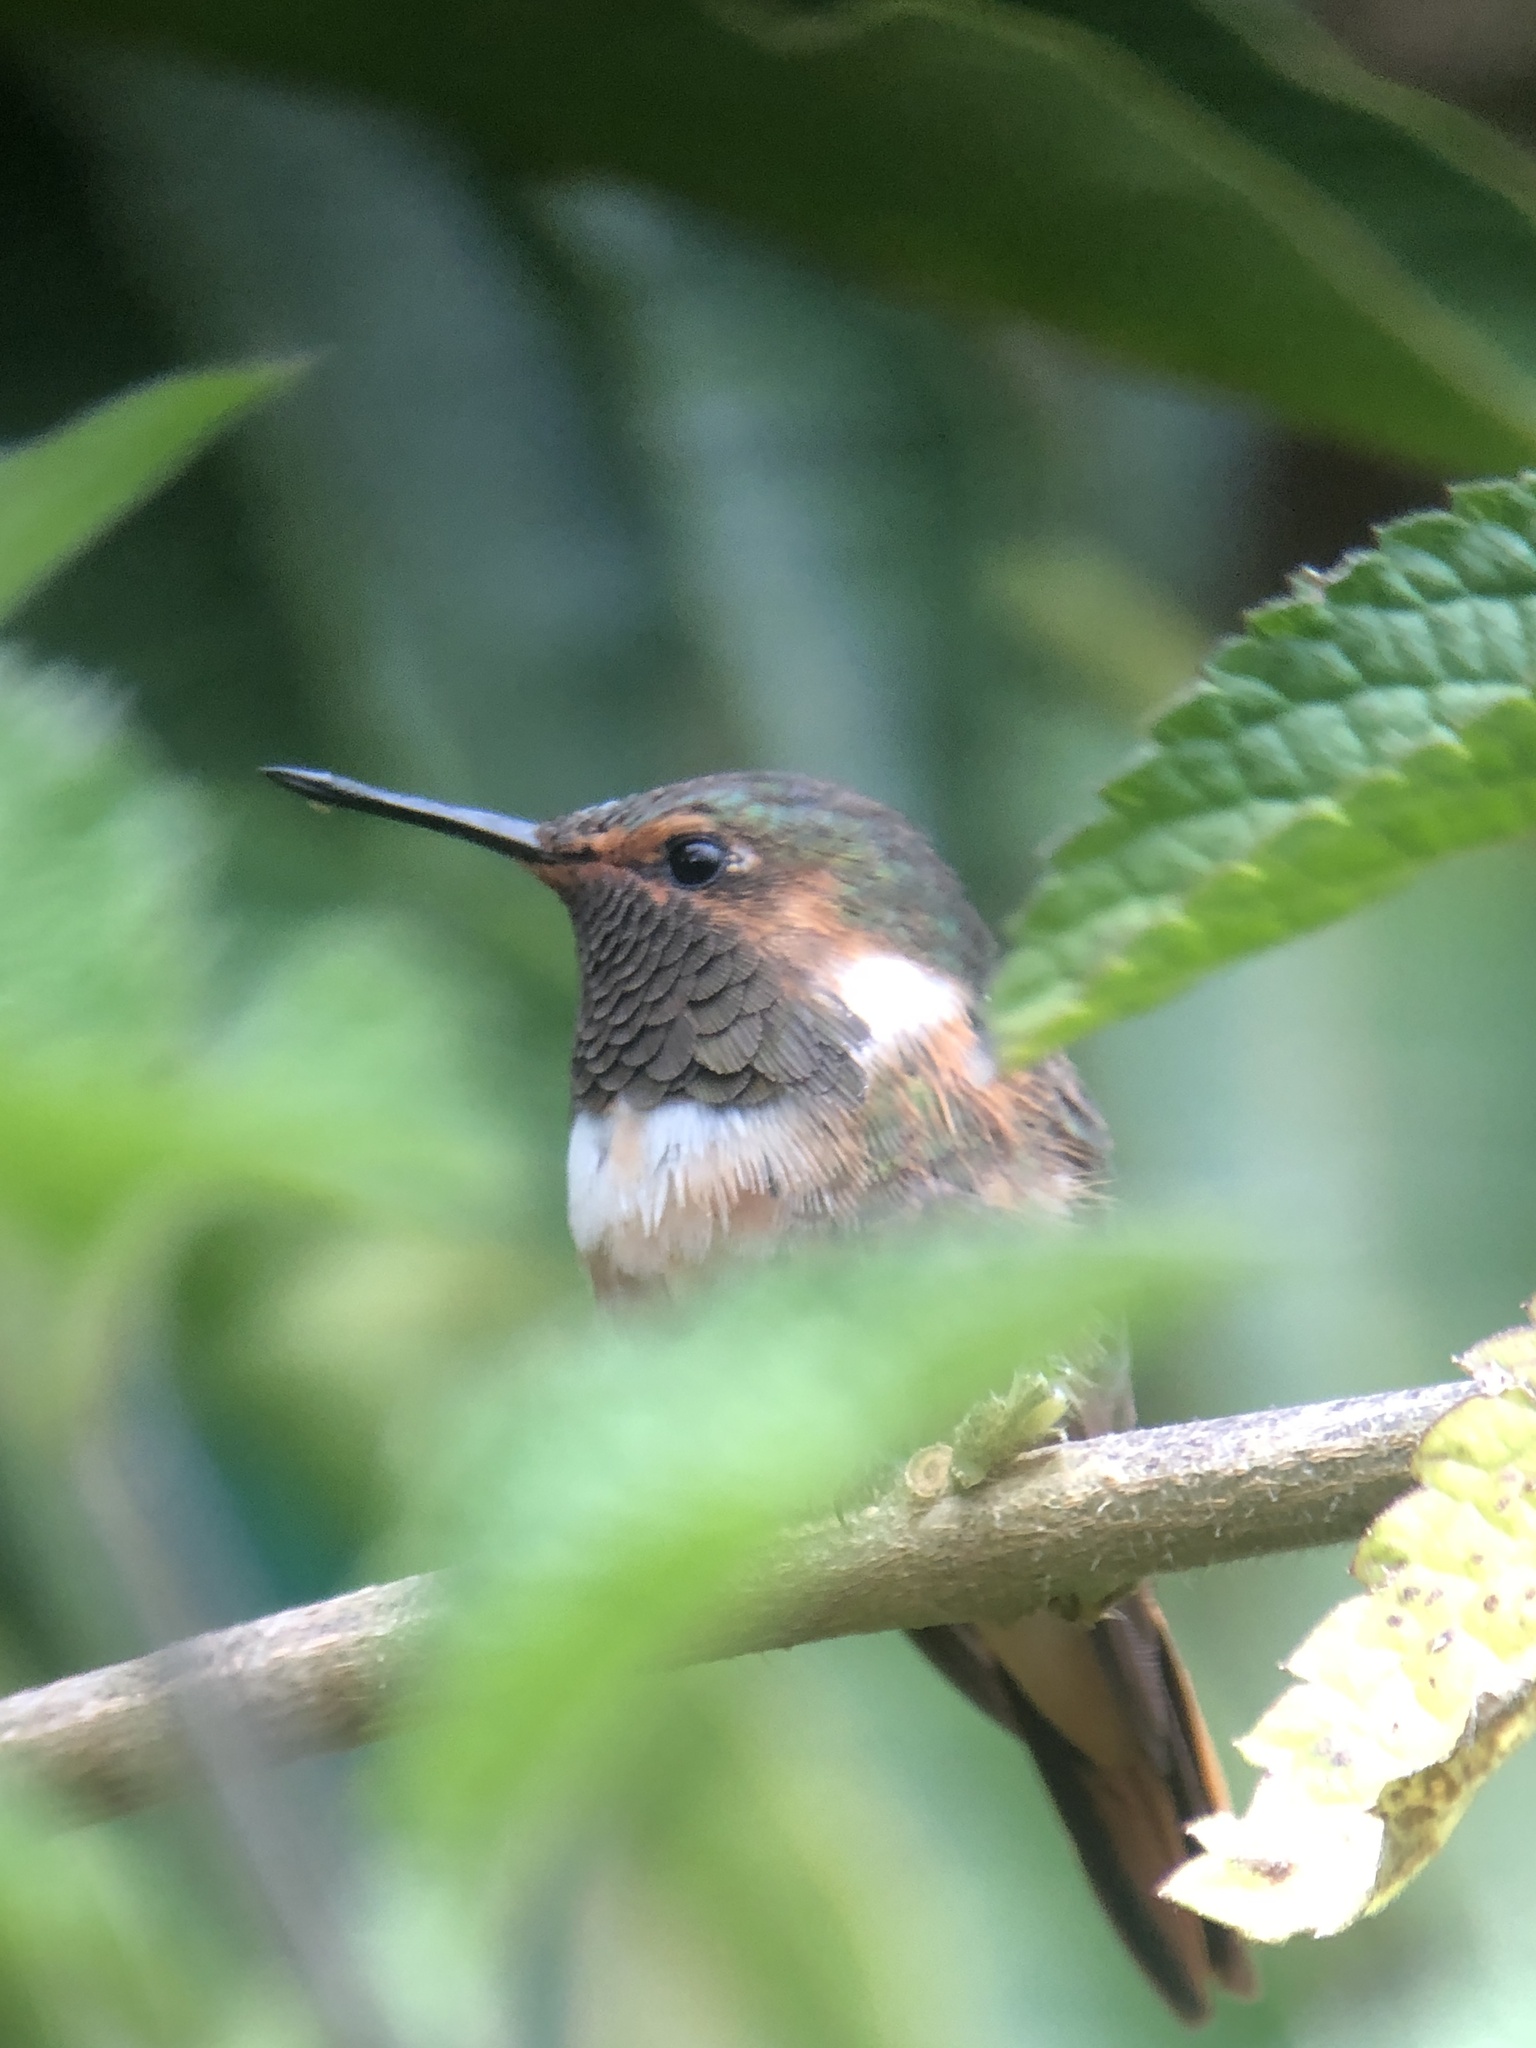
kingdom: Animalia
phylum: Chordata
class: Aves
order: Apodiformes
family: Trochilidae
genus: Selasphorus
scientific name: Selasphorus scintilla
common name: Scintillant hummingbird
